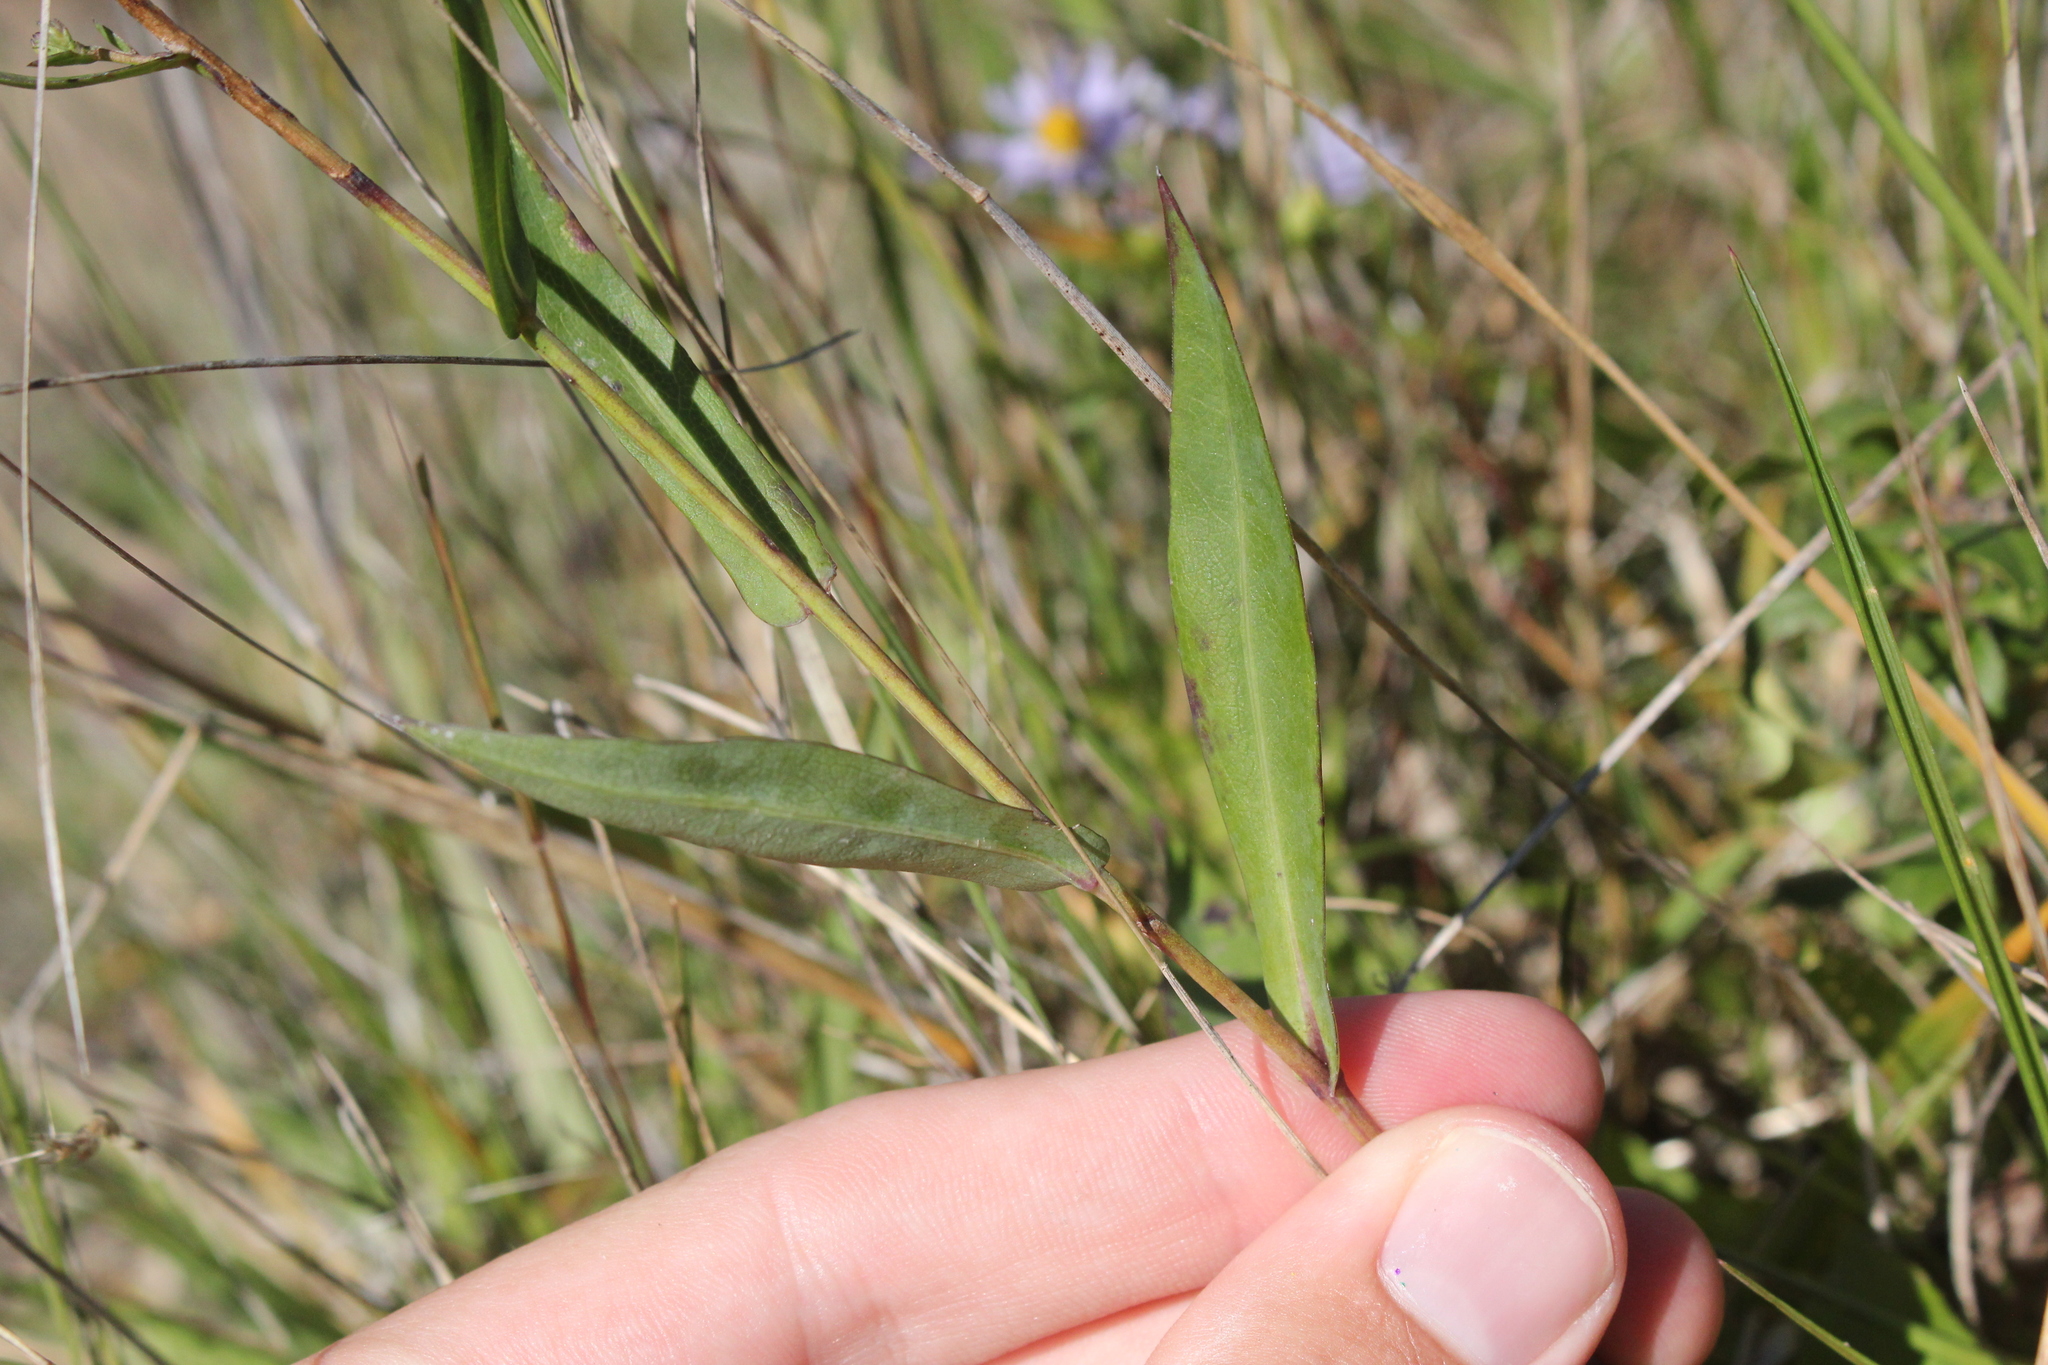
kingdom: Plantae
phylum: Tracheophyta
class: Magnoliopsida
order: Asterales
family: Asteraceae
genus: Symphyotrichum
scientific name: Symphyotrichum laeve
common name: Glaucous aster
